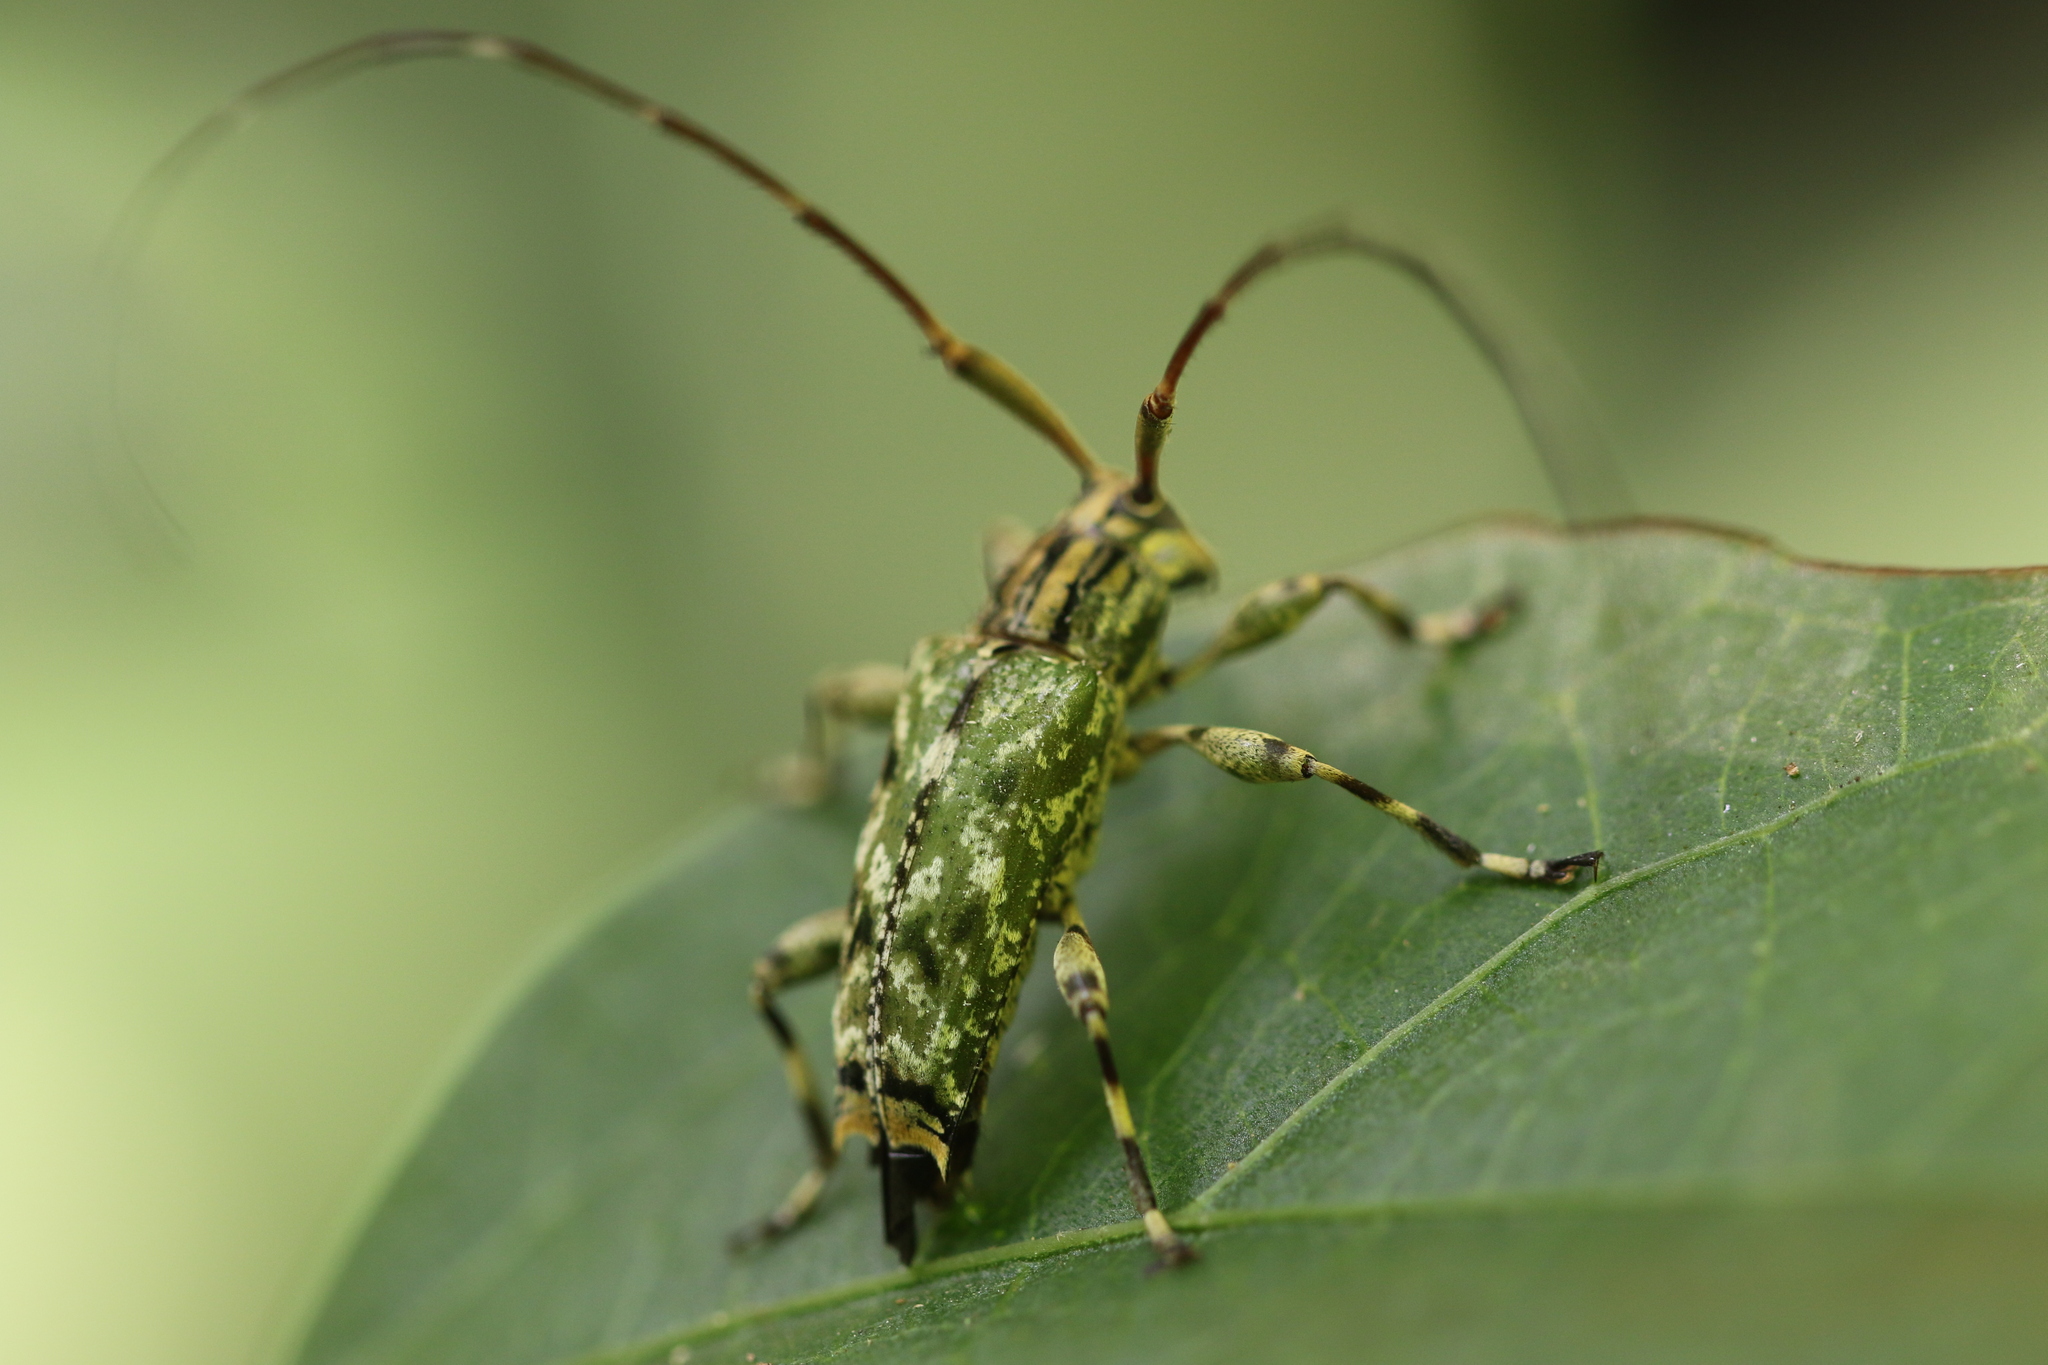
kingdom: Animalia
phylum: Arthropoda
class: Insecta
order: Coleoptera
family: Cerambycidae
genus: Colobothea
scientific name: Colobothea musiva
